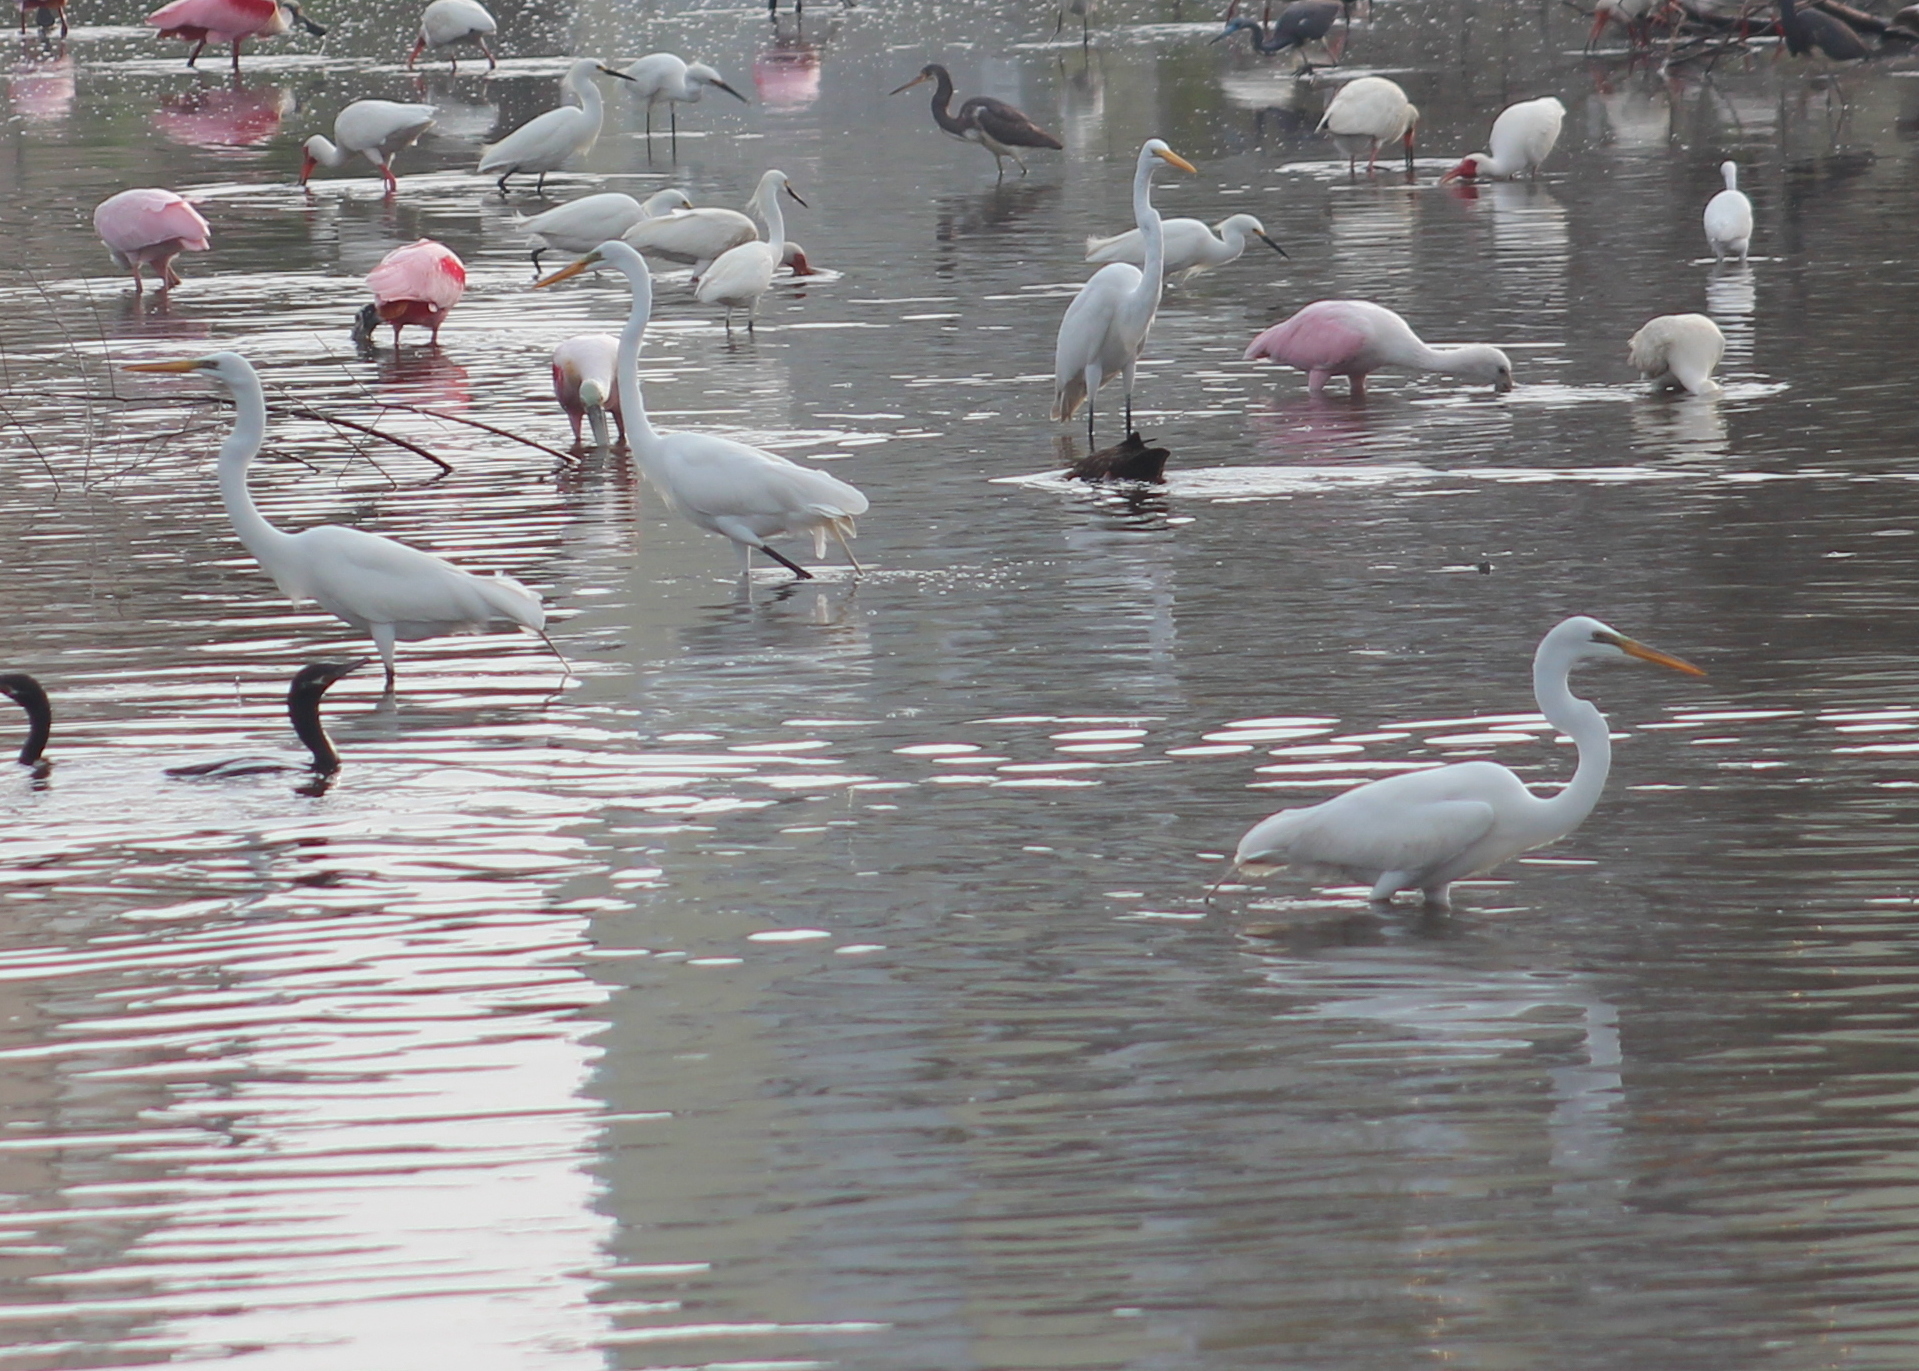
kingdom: Animalia
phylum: Chordata
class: Aves
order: Pelecaniformes
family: Ardeidae
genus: Ardea
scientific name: Ardea alba
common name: Great egret
